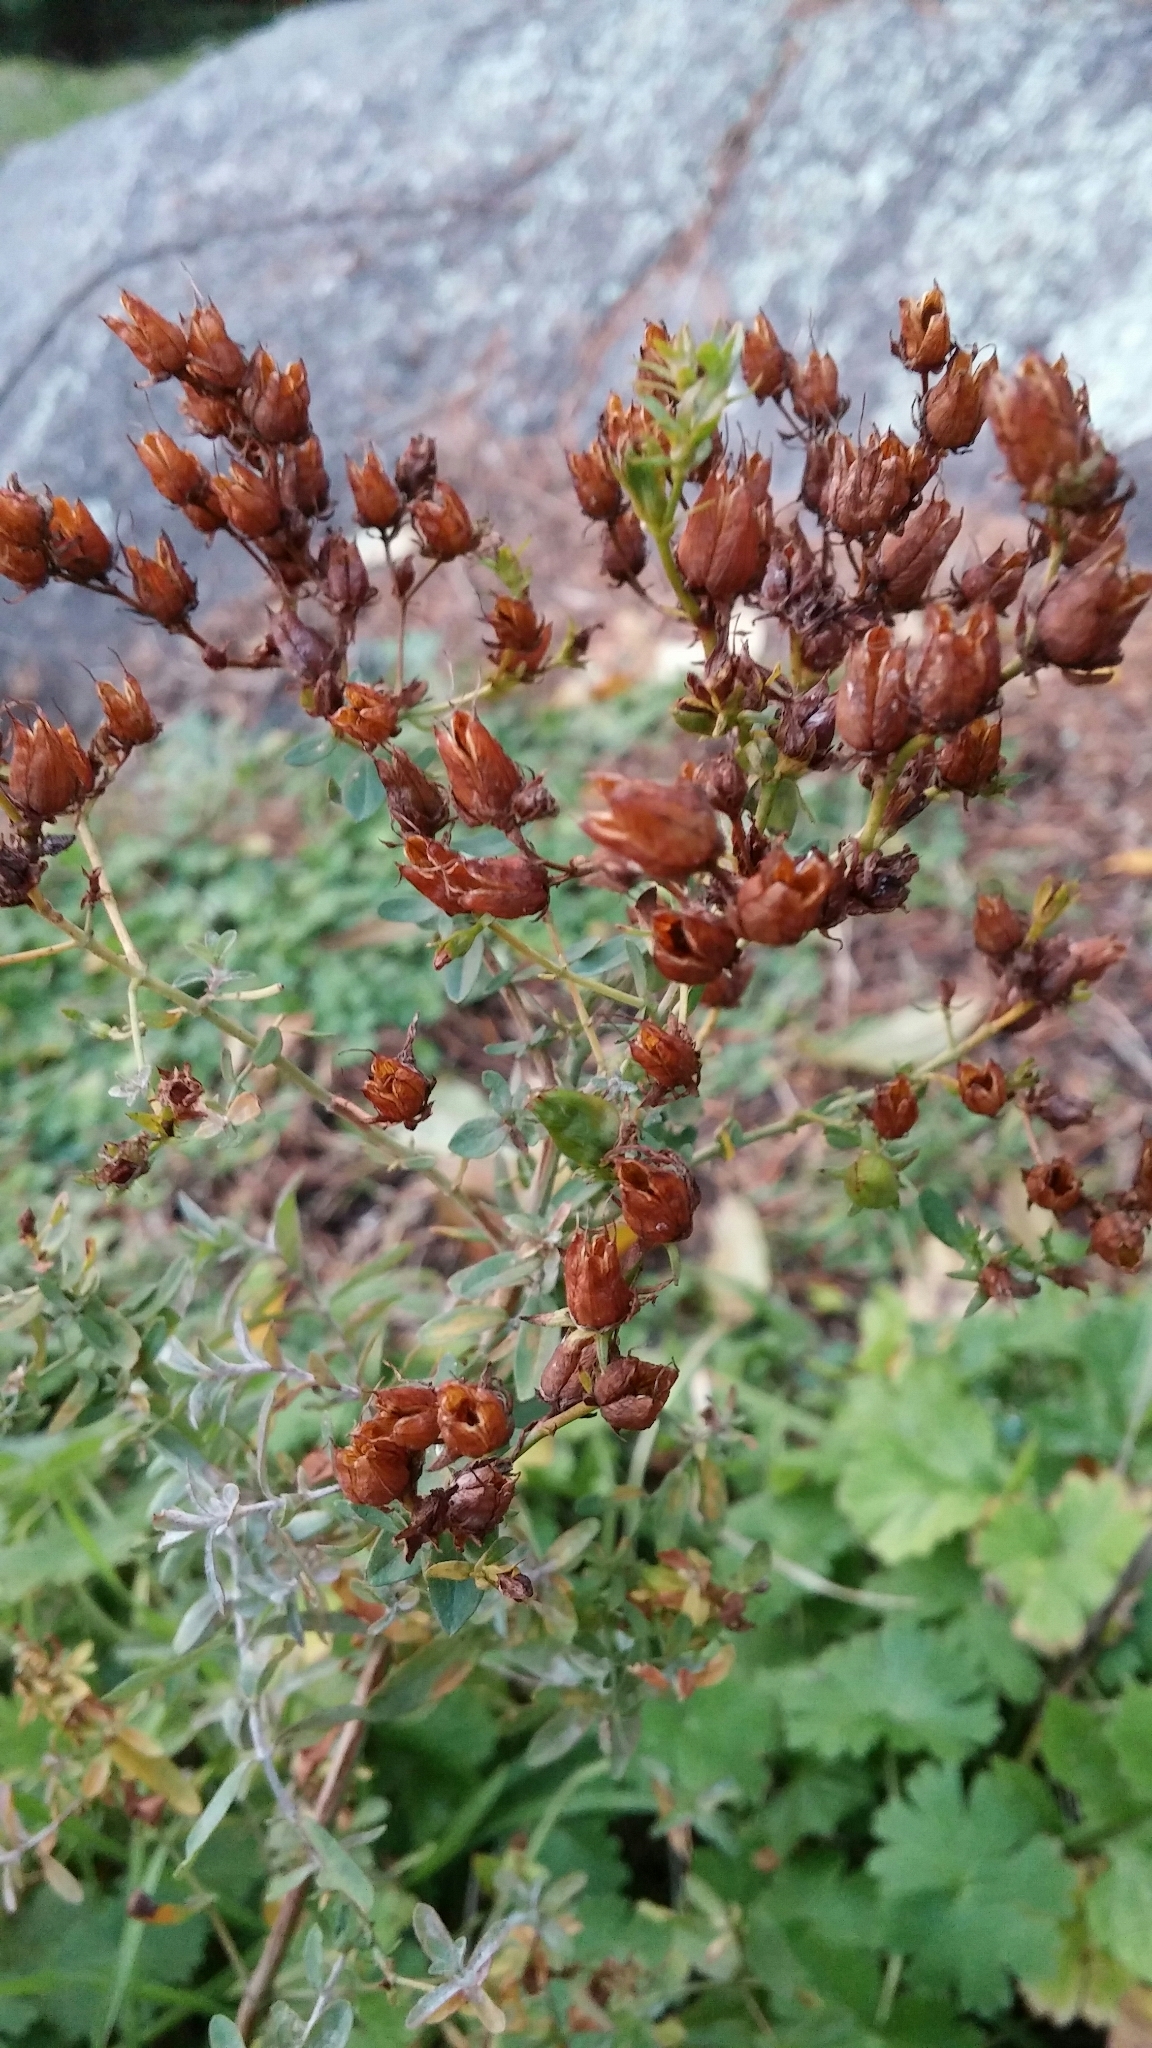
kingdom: Plantae
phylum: Tracheophyta
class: Magnoliopsida
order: Malpighiales
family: Hypericaceae
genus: Hypericum
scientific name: Hypericum perforatum
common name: Common st. johnswort
